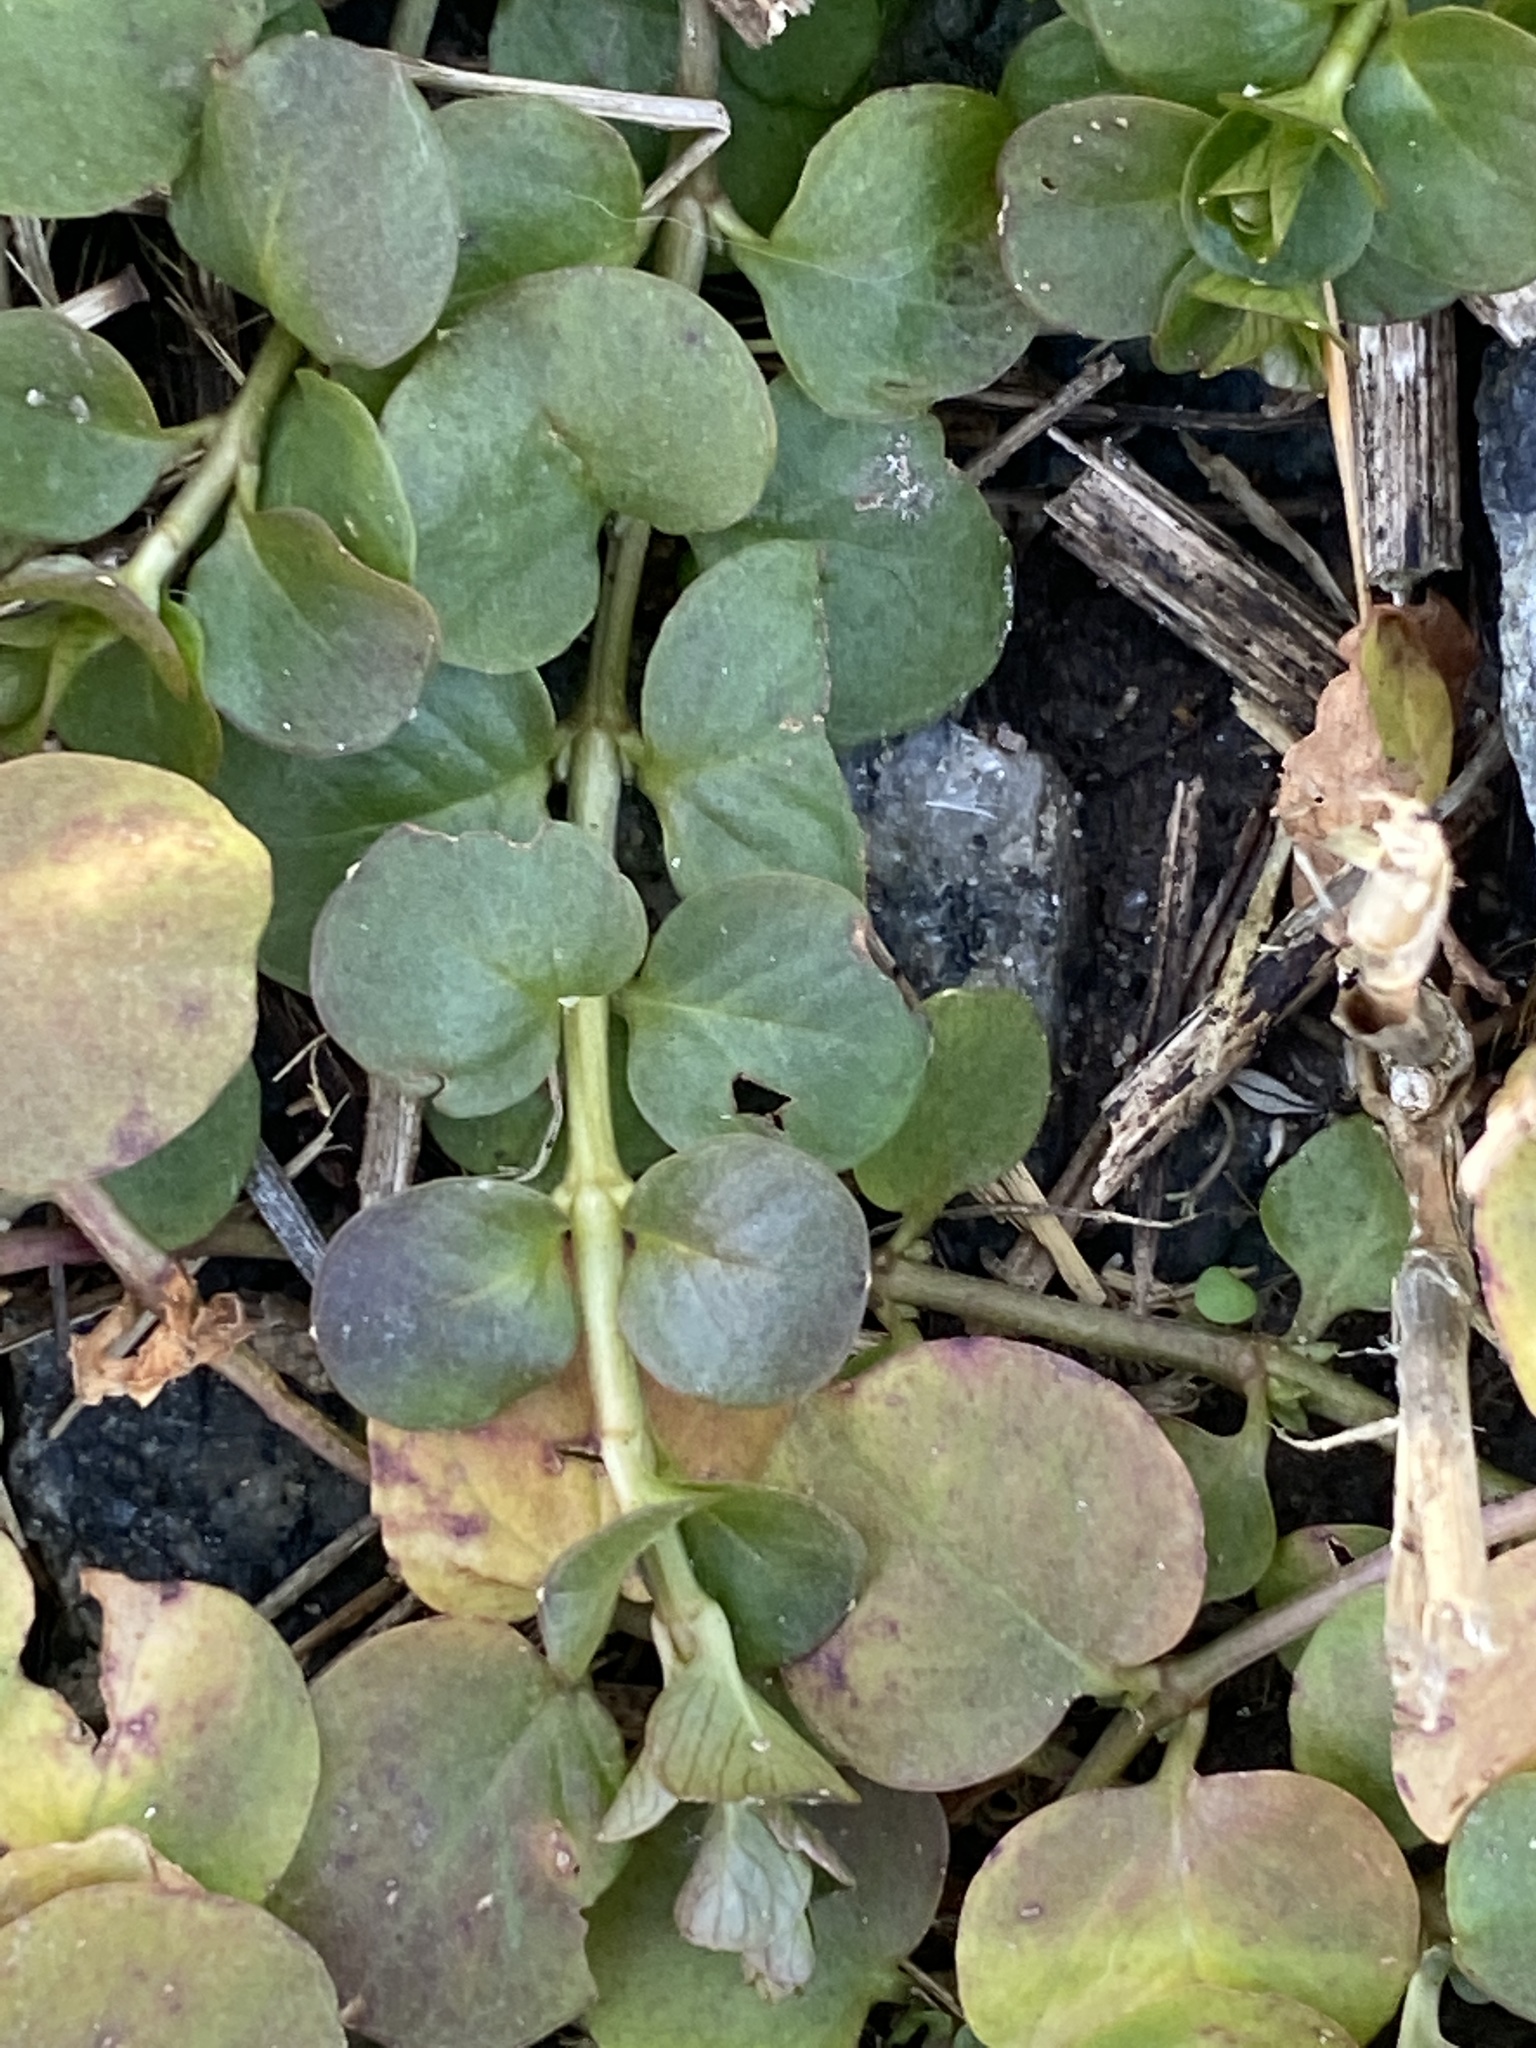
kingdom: Plantae
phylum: Tracheophyta
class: Magnoliopsida
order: Ericales
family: Primulaceae
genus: Lysimachia
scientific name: Lysimachia nummularia
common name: Moneywort
